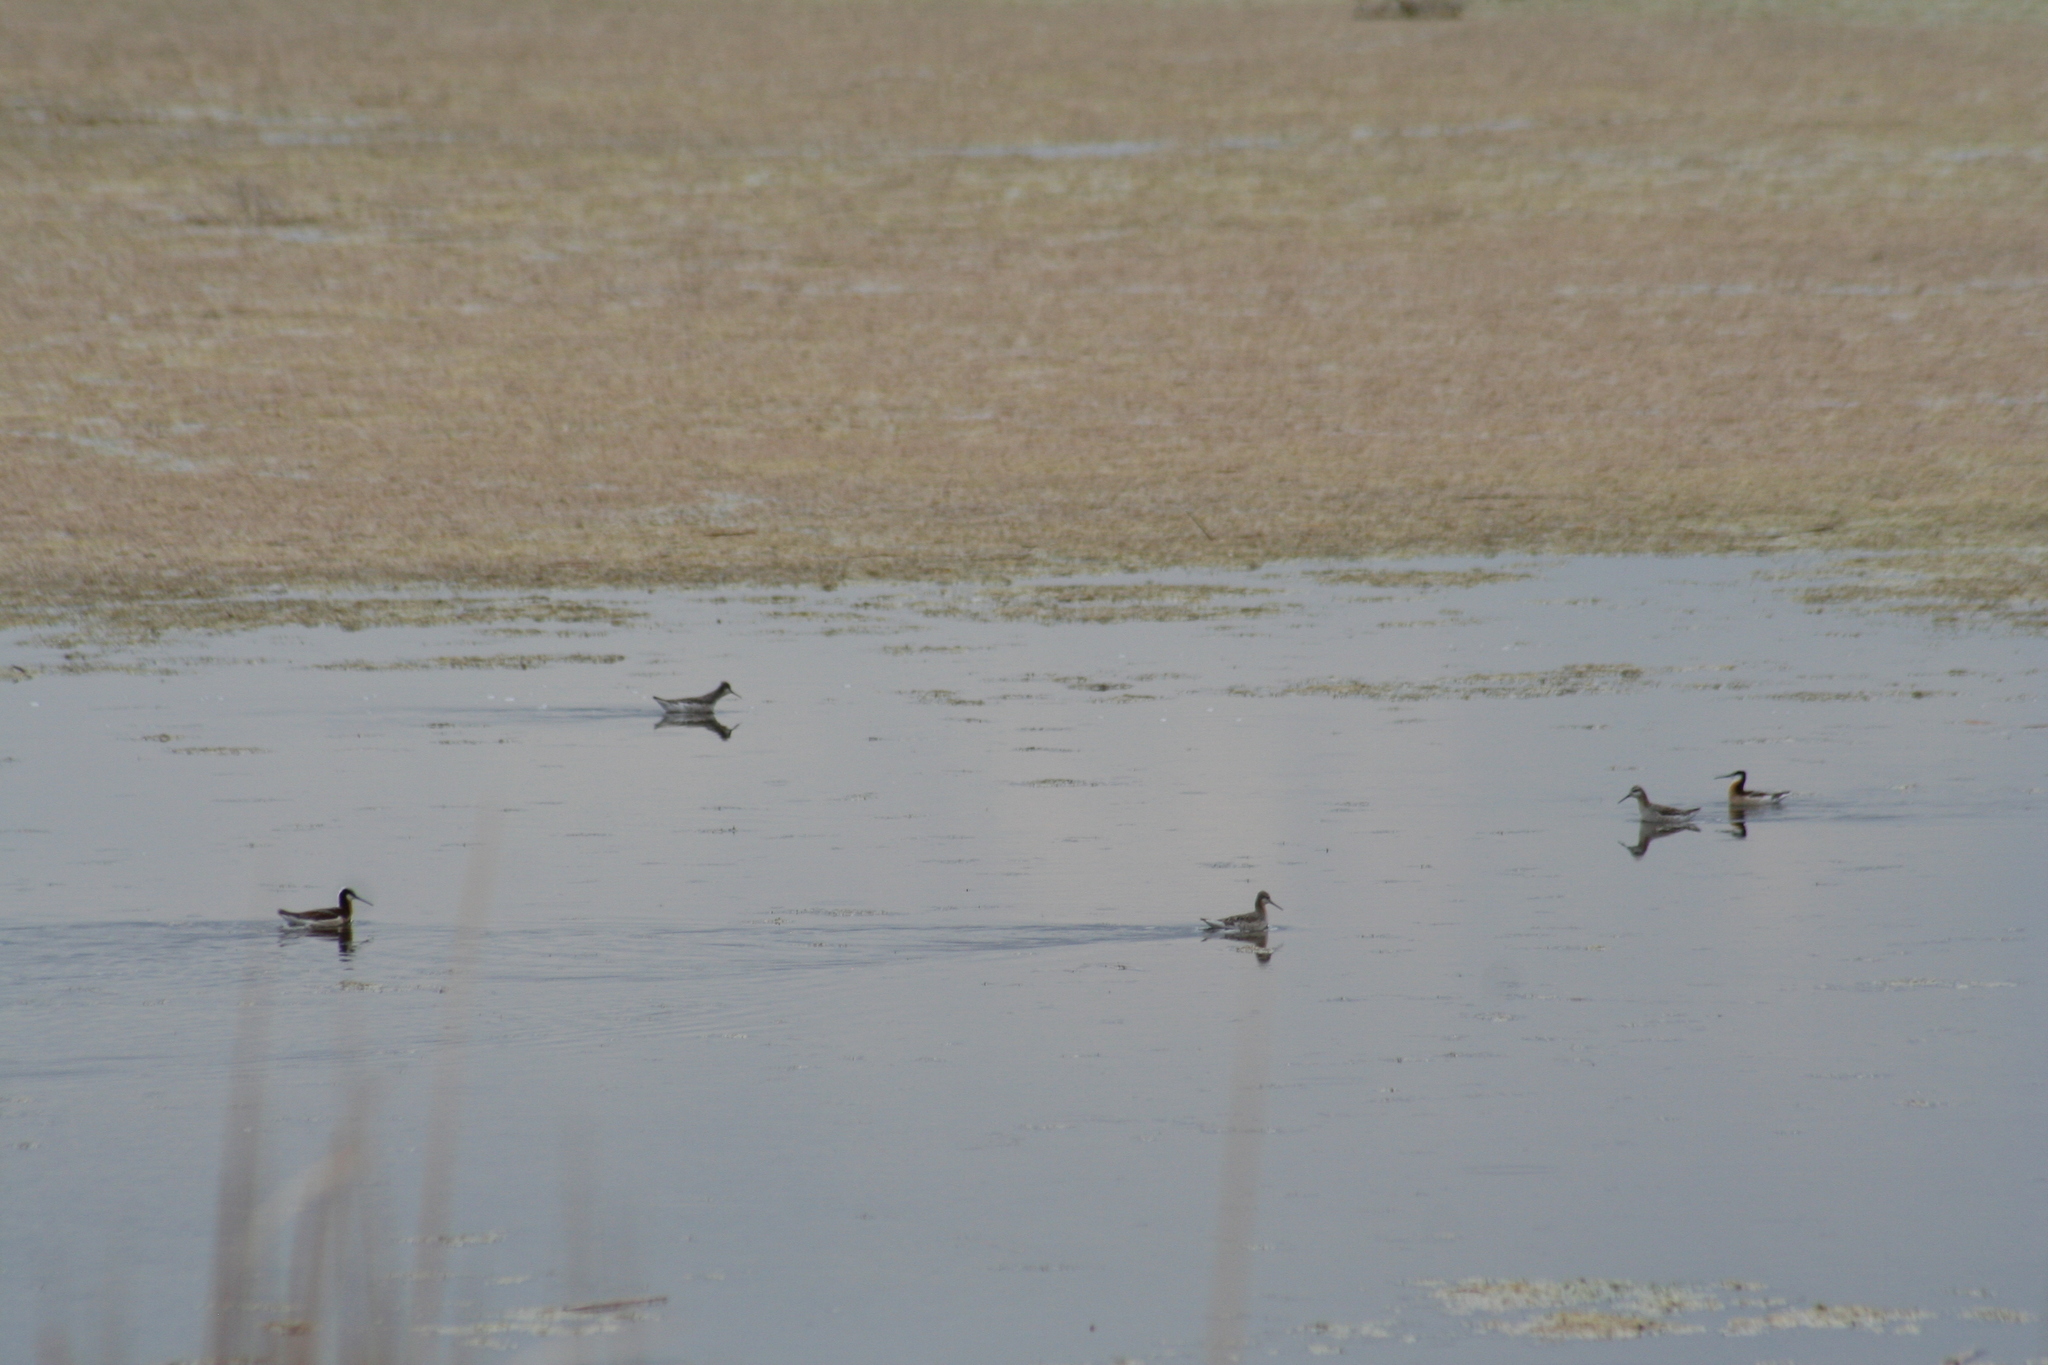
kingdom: Animalia
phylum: Chordata
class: Aves
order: Charadriiformes
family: Scolopacidae
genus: Phalaropus
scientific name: Phalaropus tricolor
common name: Wilson's phalarope
